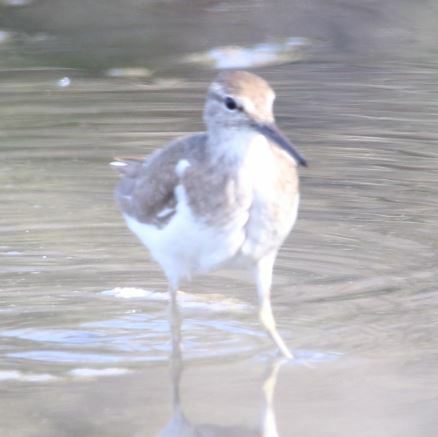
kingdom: Animalia
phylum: Chordata
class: Aves
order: Charadriiformes
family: Scolopacidae
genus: Actitis
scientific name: Actitis hypoleucos
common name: Common sandpiper
